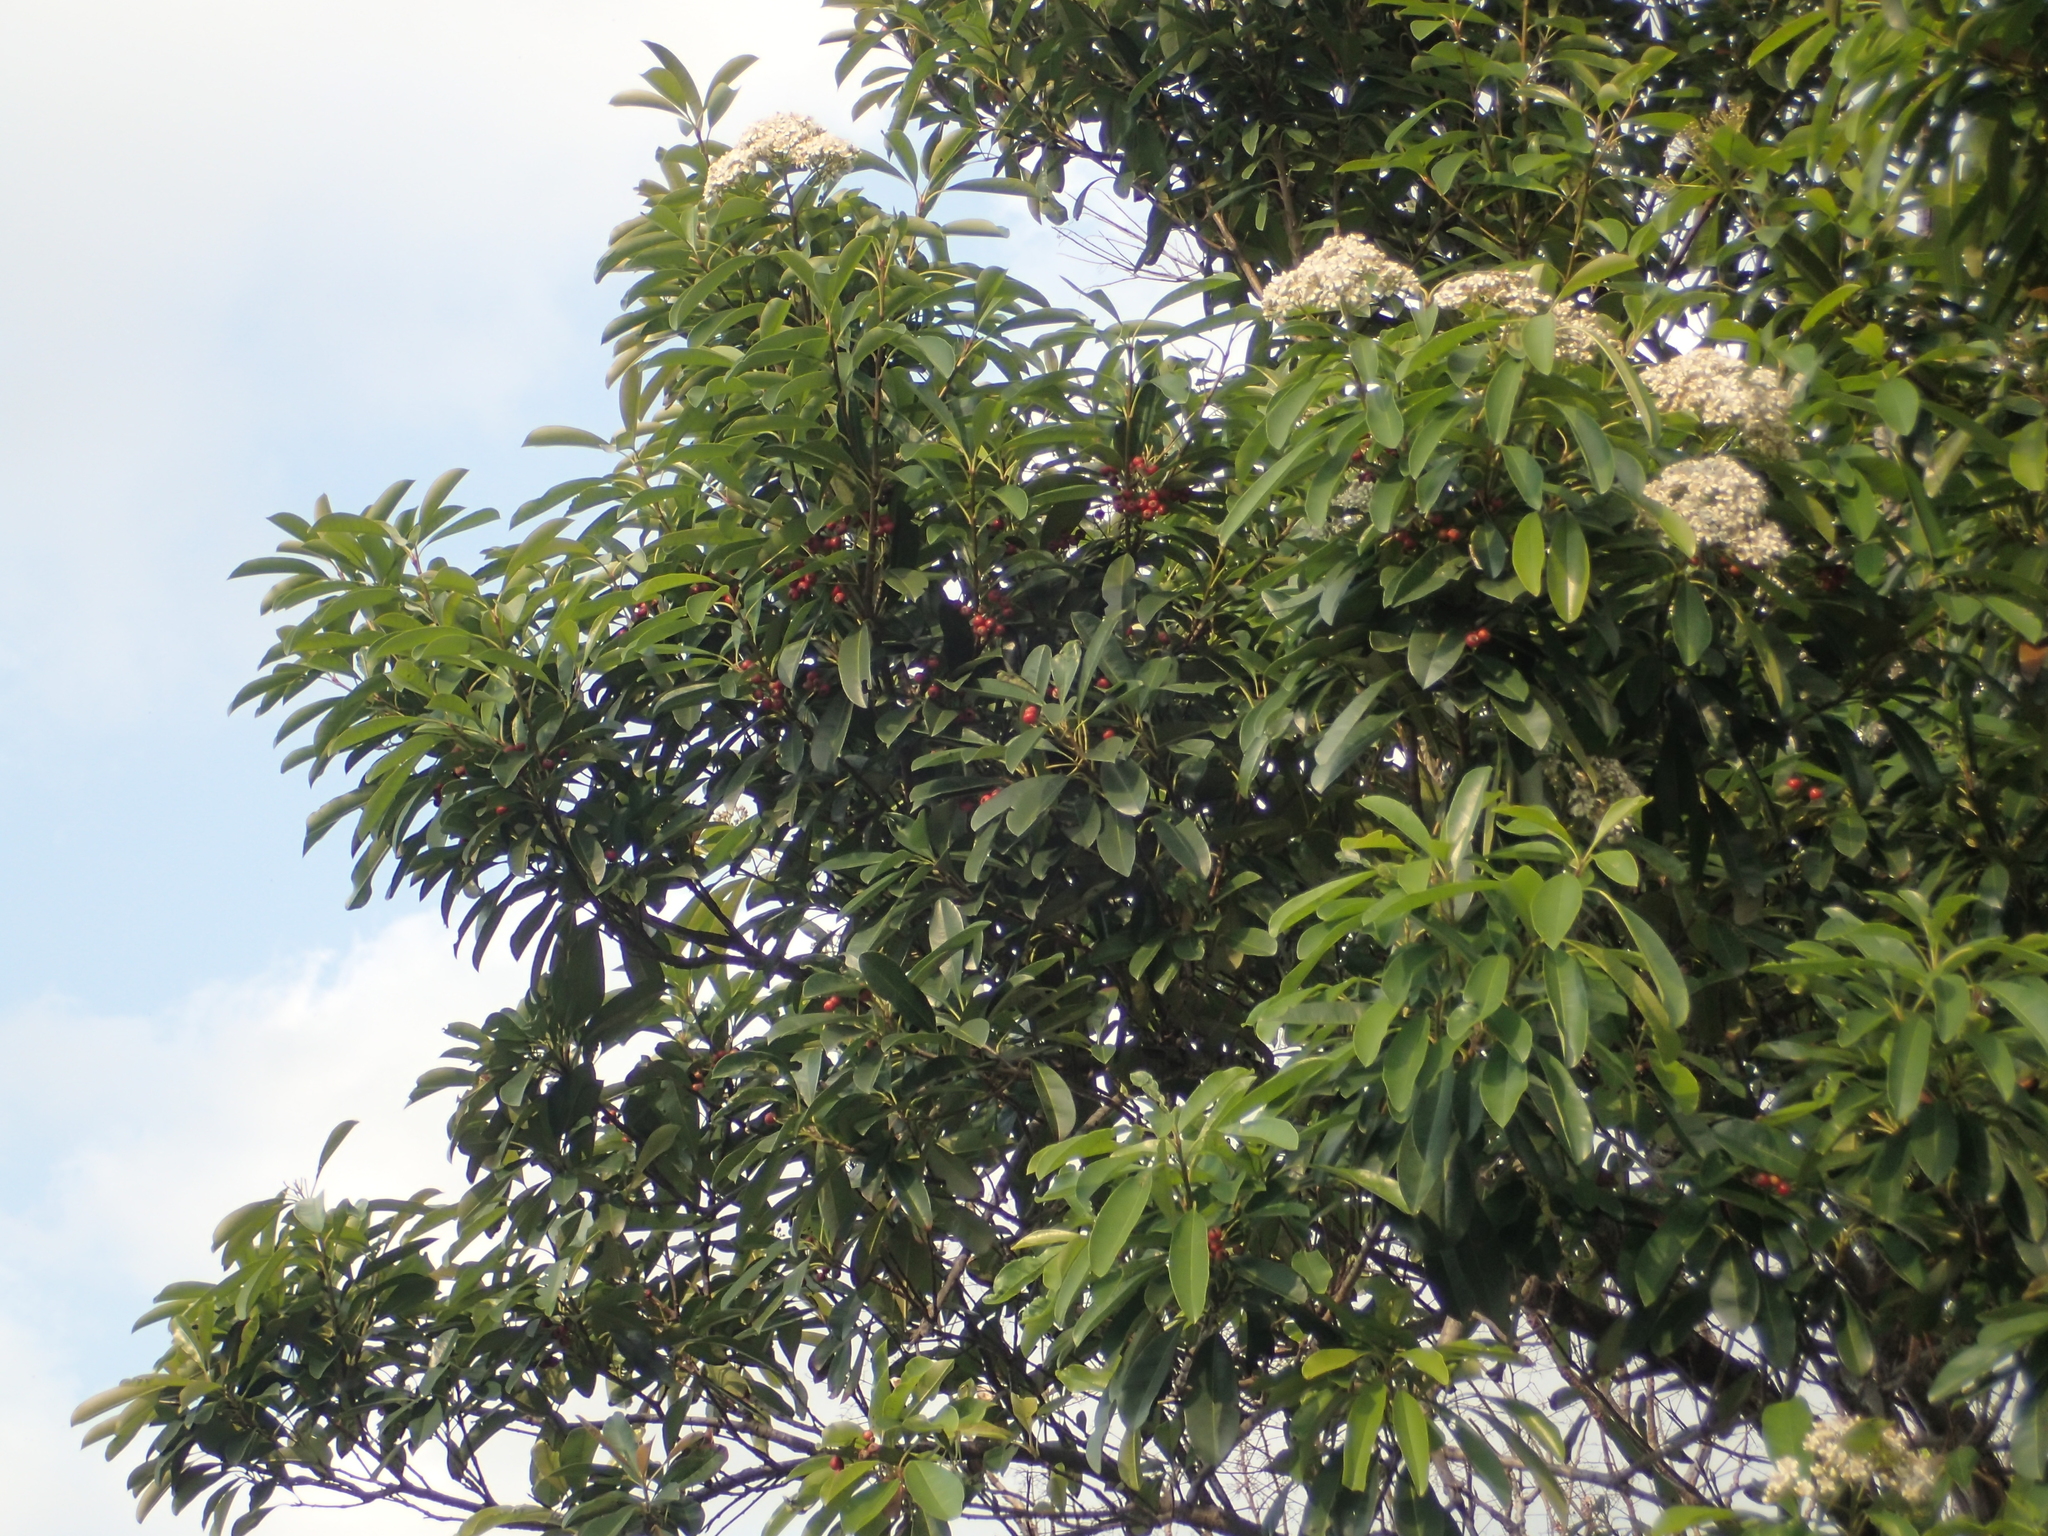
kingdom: Plantae
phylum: Tracheophyta
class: Magnoliopsida
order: Rosales
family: Rosaceae
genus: Photinia
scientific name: Photinia serratifolia
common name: Taiwanese photinia
